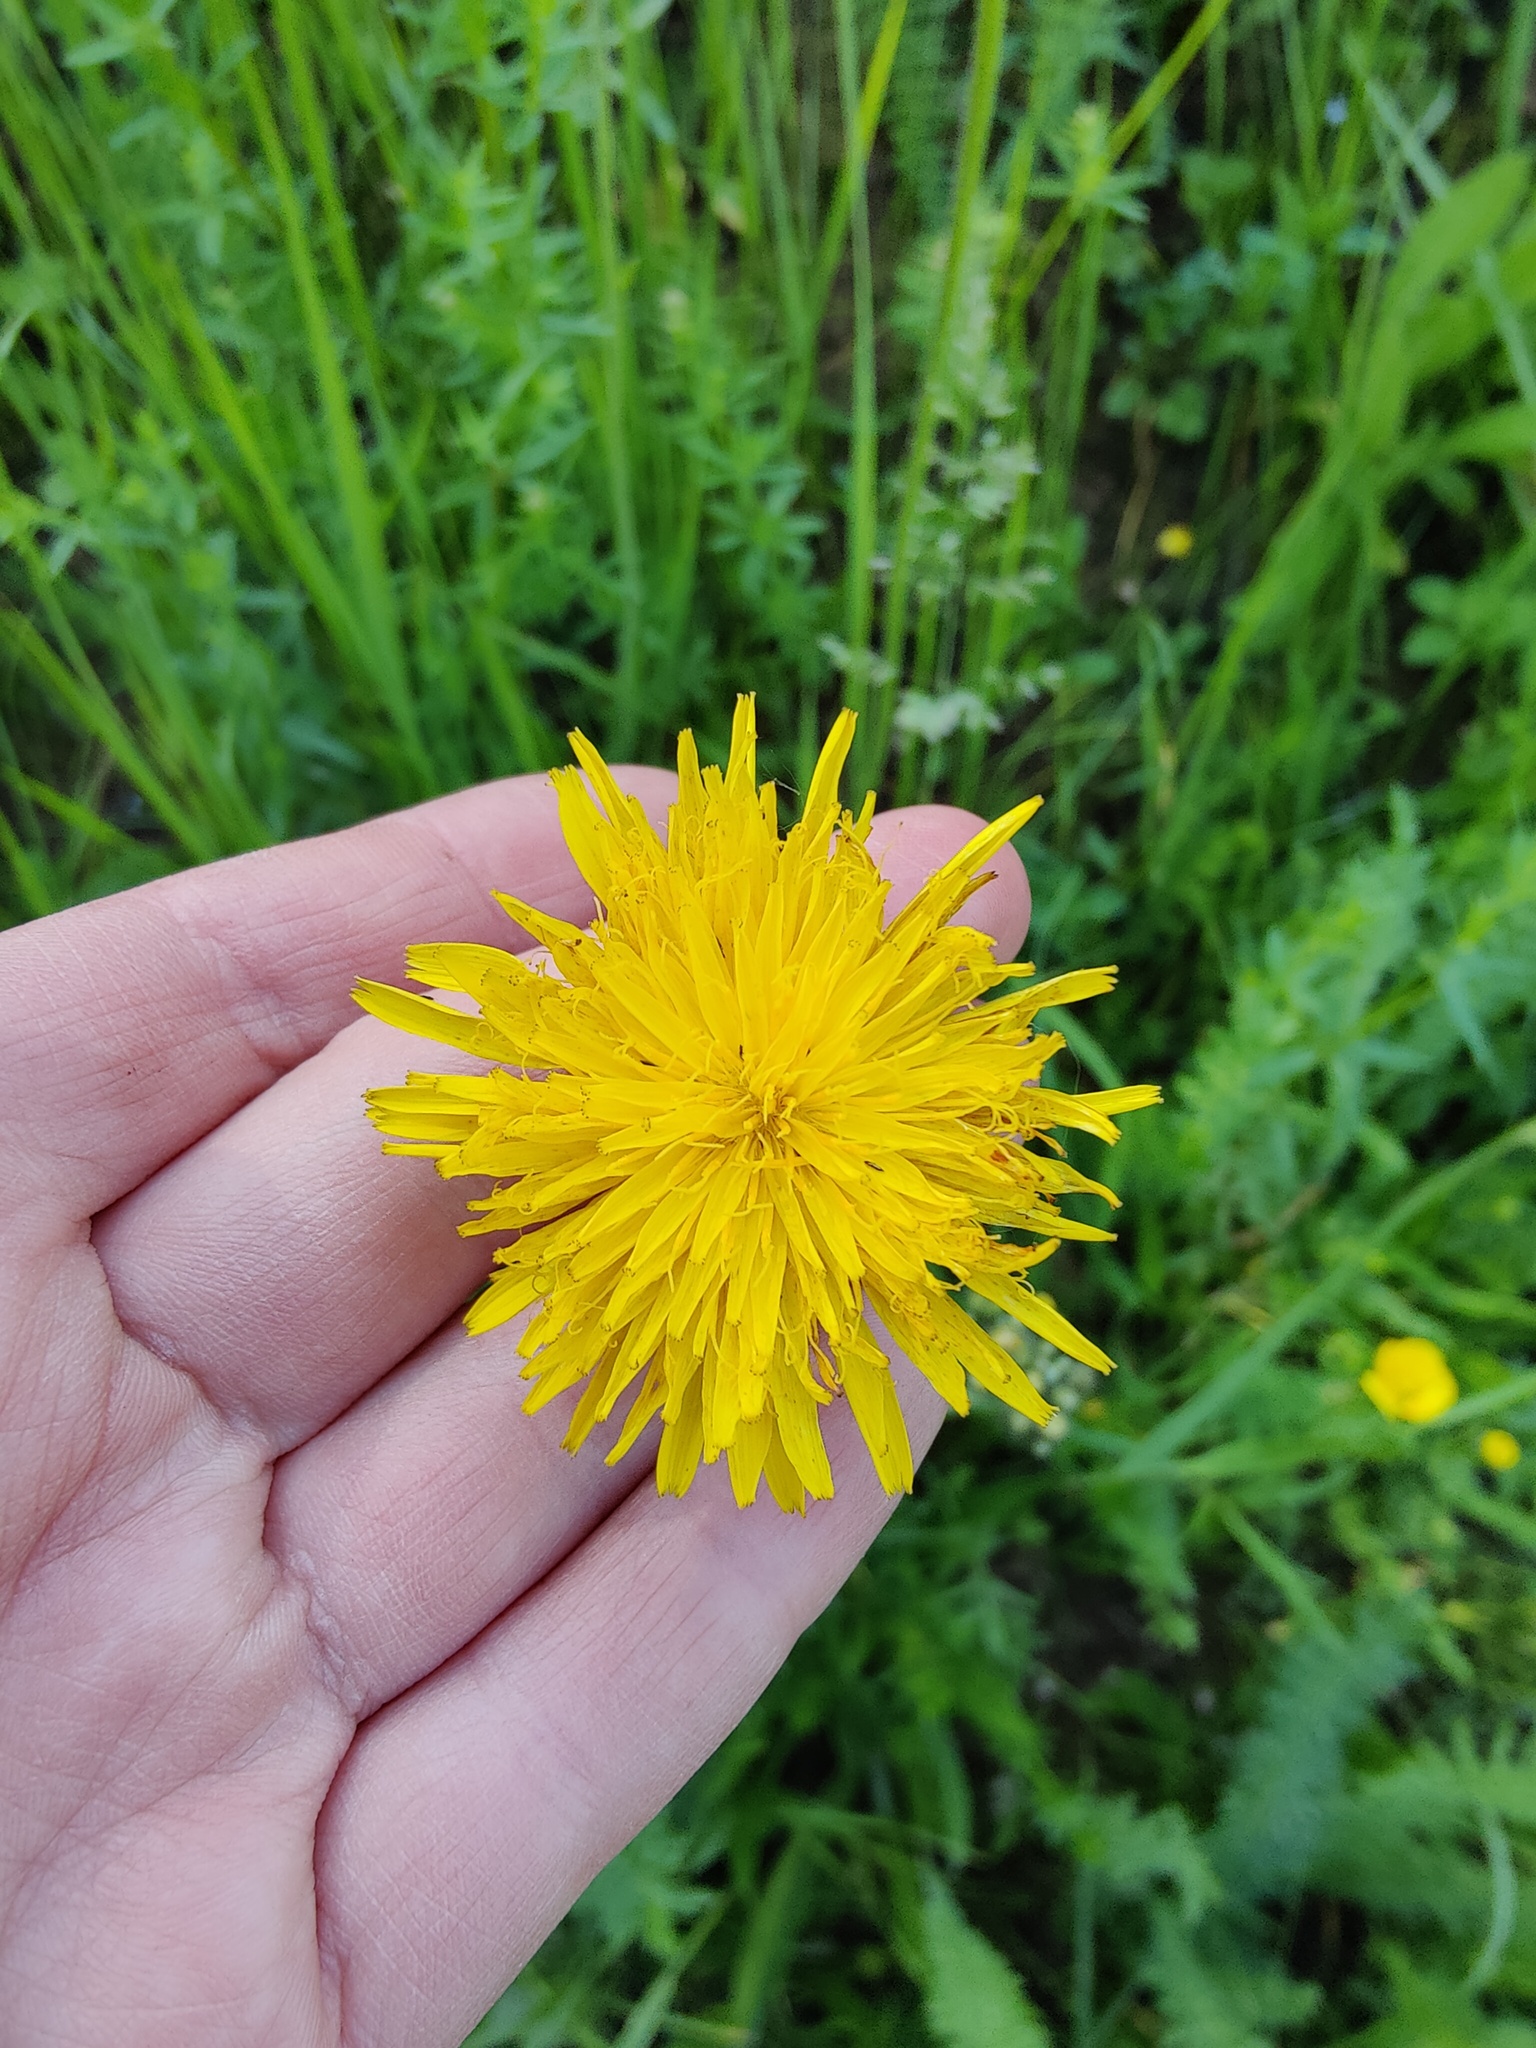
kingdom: Plantae
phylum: Tracheophyta
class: Magnoliopsida
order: Asterales
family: Asteraceae
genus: Leontodon
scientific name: Leontodon hispidus
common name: Rough hawkbit
